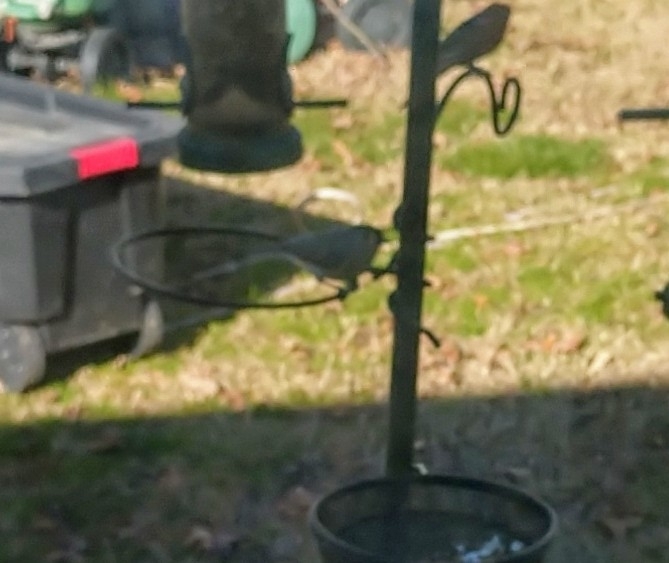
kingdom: Animalia
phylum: Chordata
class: Aves
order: Passeriformes
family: Paridae
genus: Baeolophus
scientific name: Baeolophus bicolor
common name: Tufted titmouse
